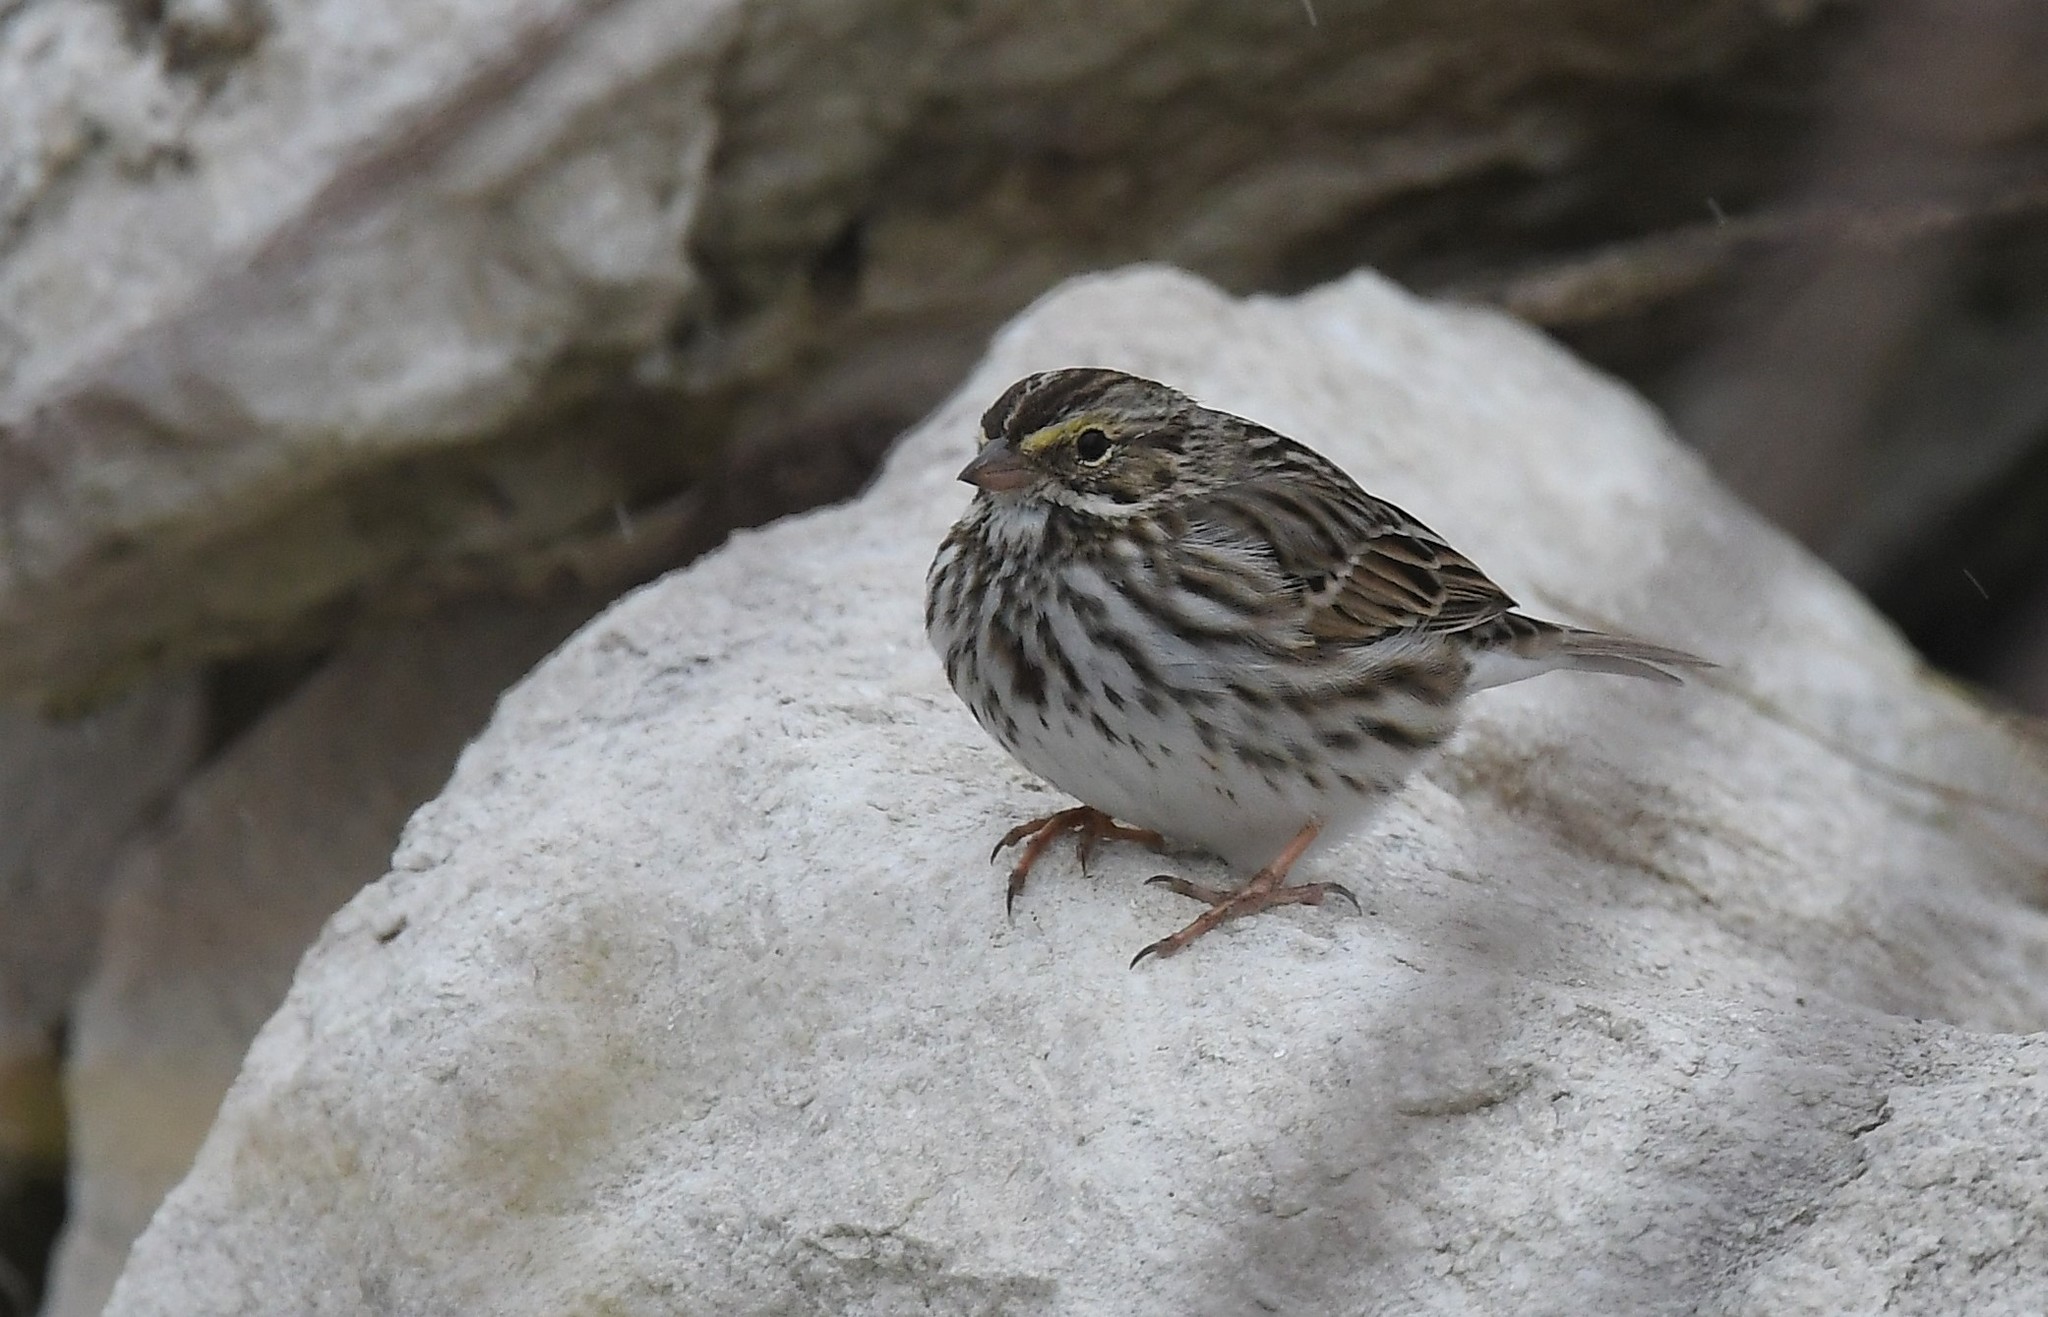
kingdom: Animalia
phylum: Chordata
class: Aves
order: Passeriformes
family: Passerellidae
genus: Passerculus
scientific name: Passerculus sandwichensis
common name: Savannah sparrow
